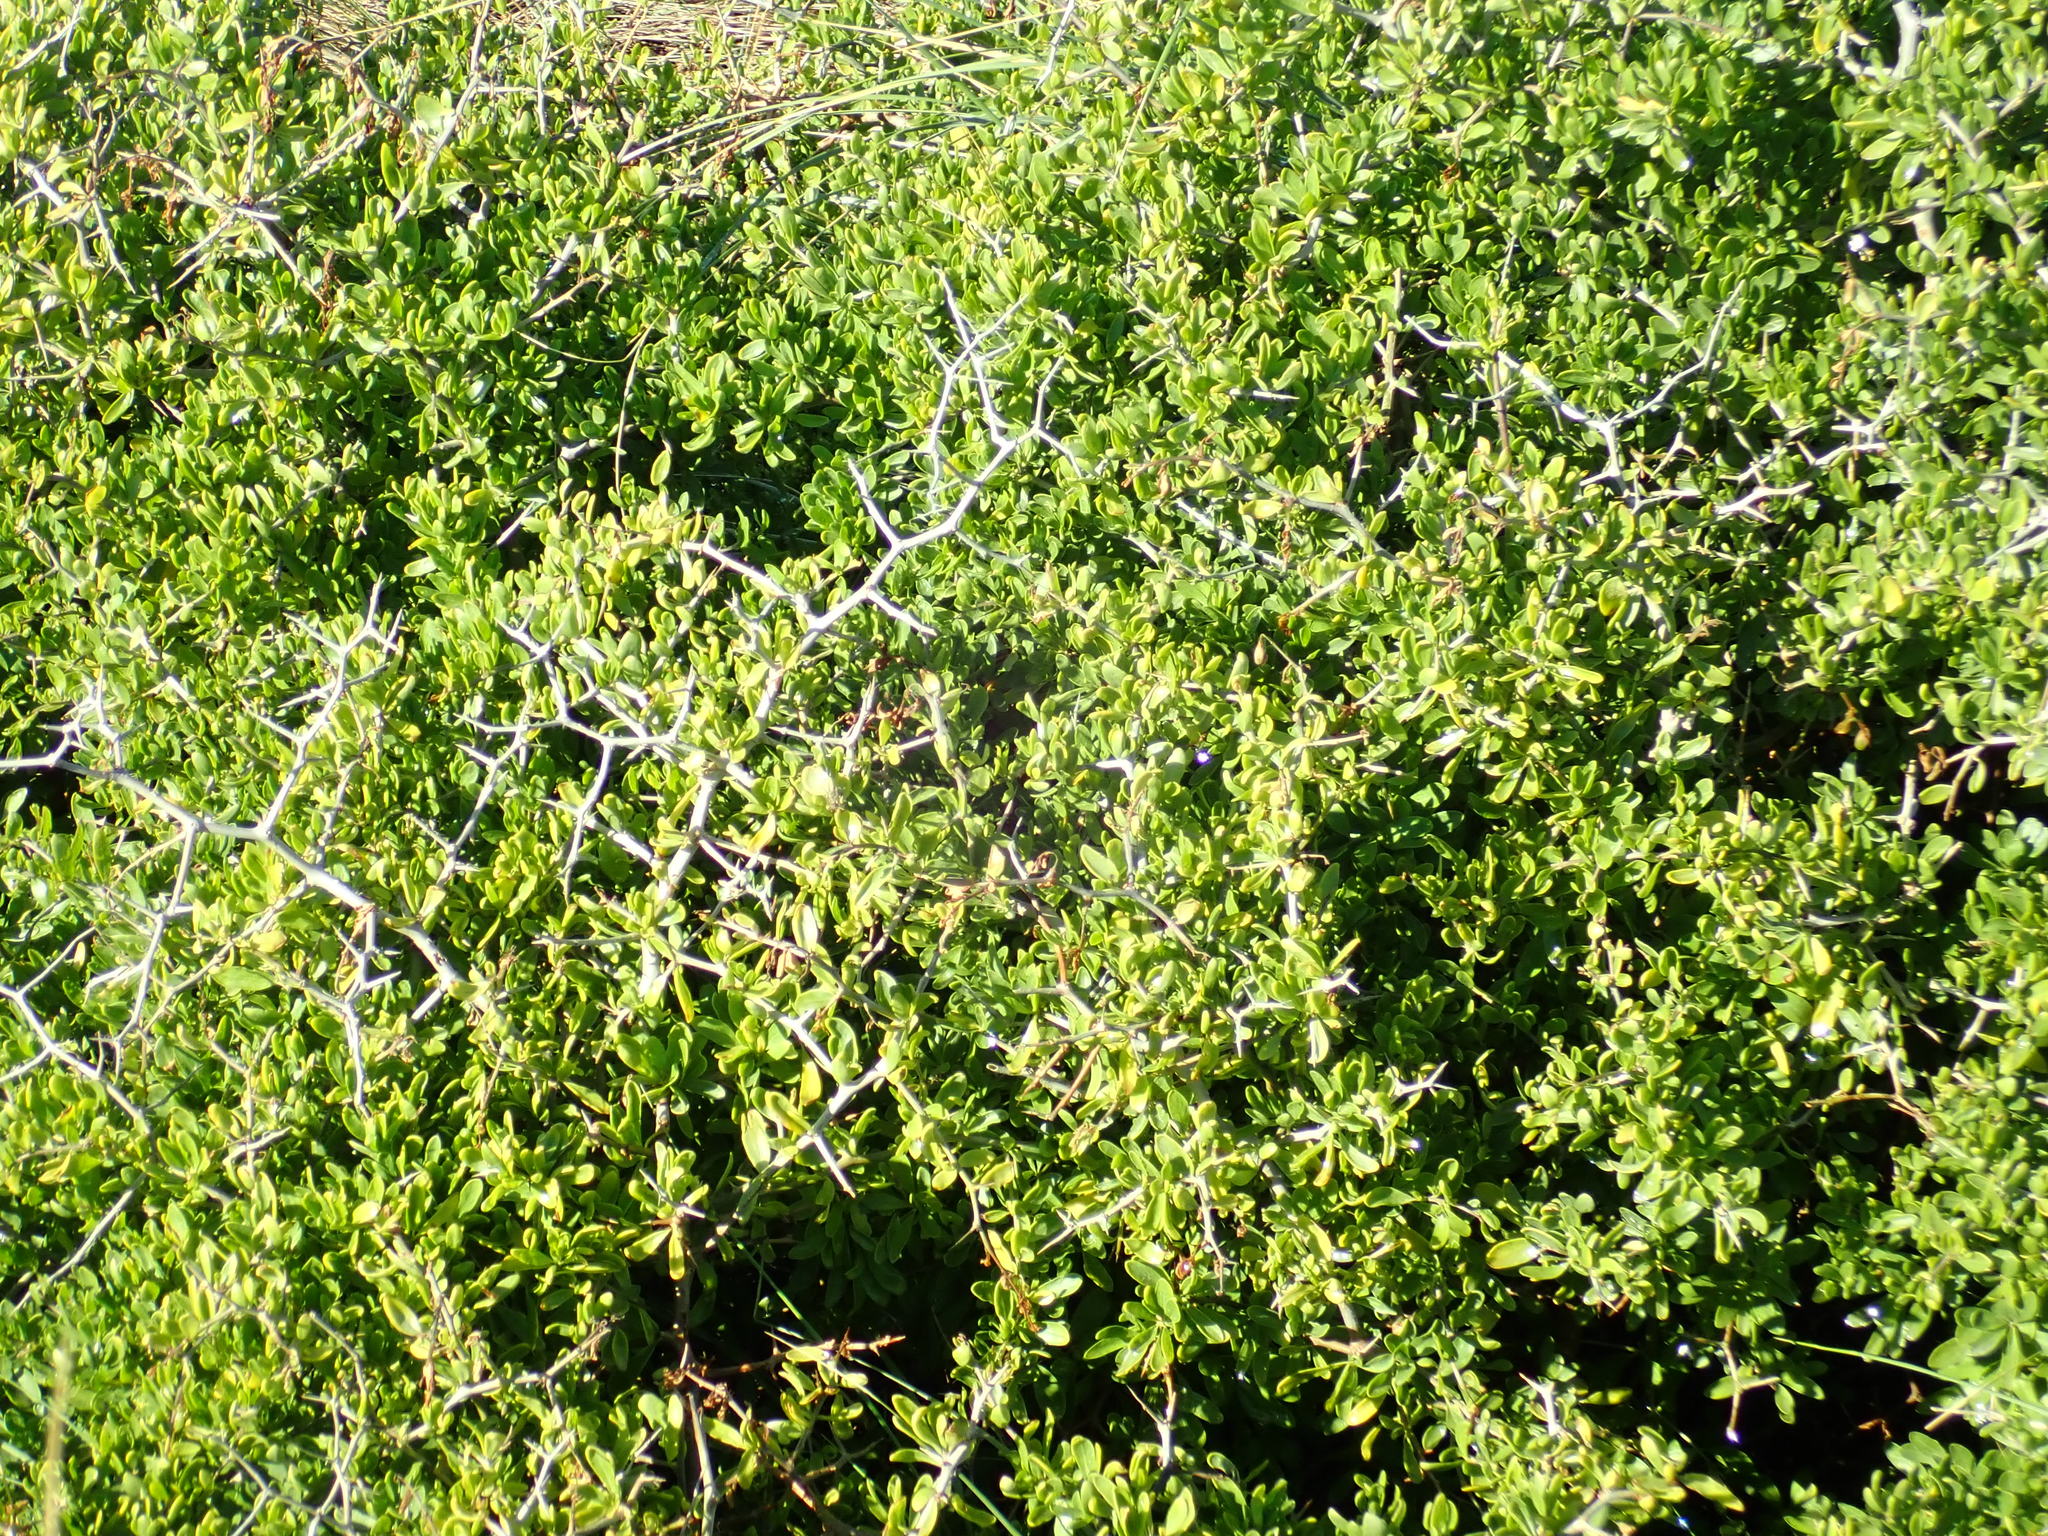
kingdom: Plantae
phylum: Tracheophyta
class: Magnoliopsida
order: Solanales
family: Solanaceae
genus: Lycium
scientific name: Lycium ferocissimum
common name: African boxthorn
